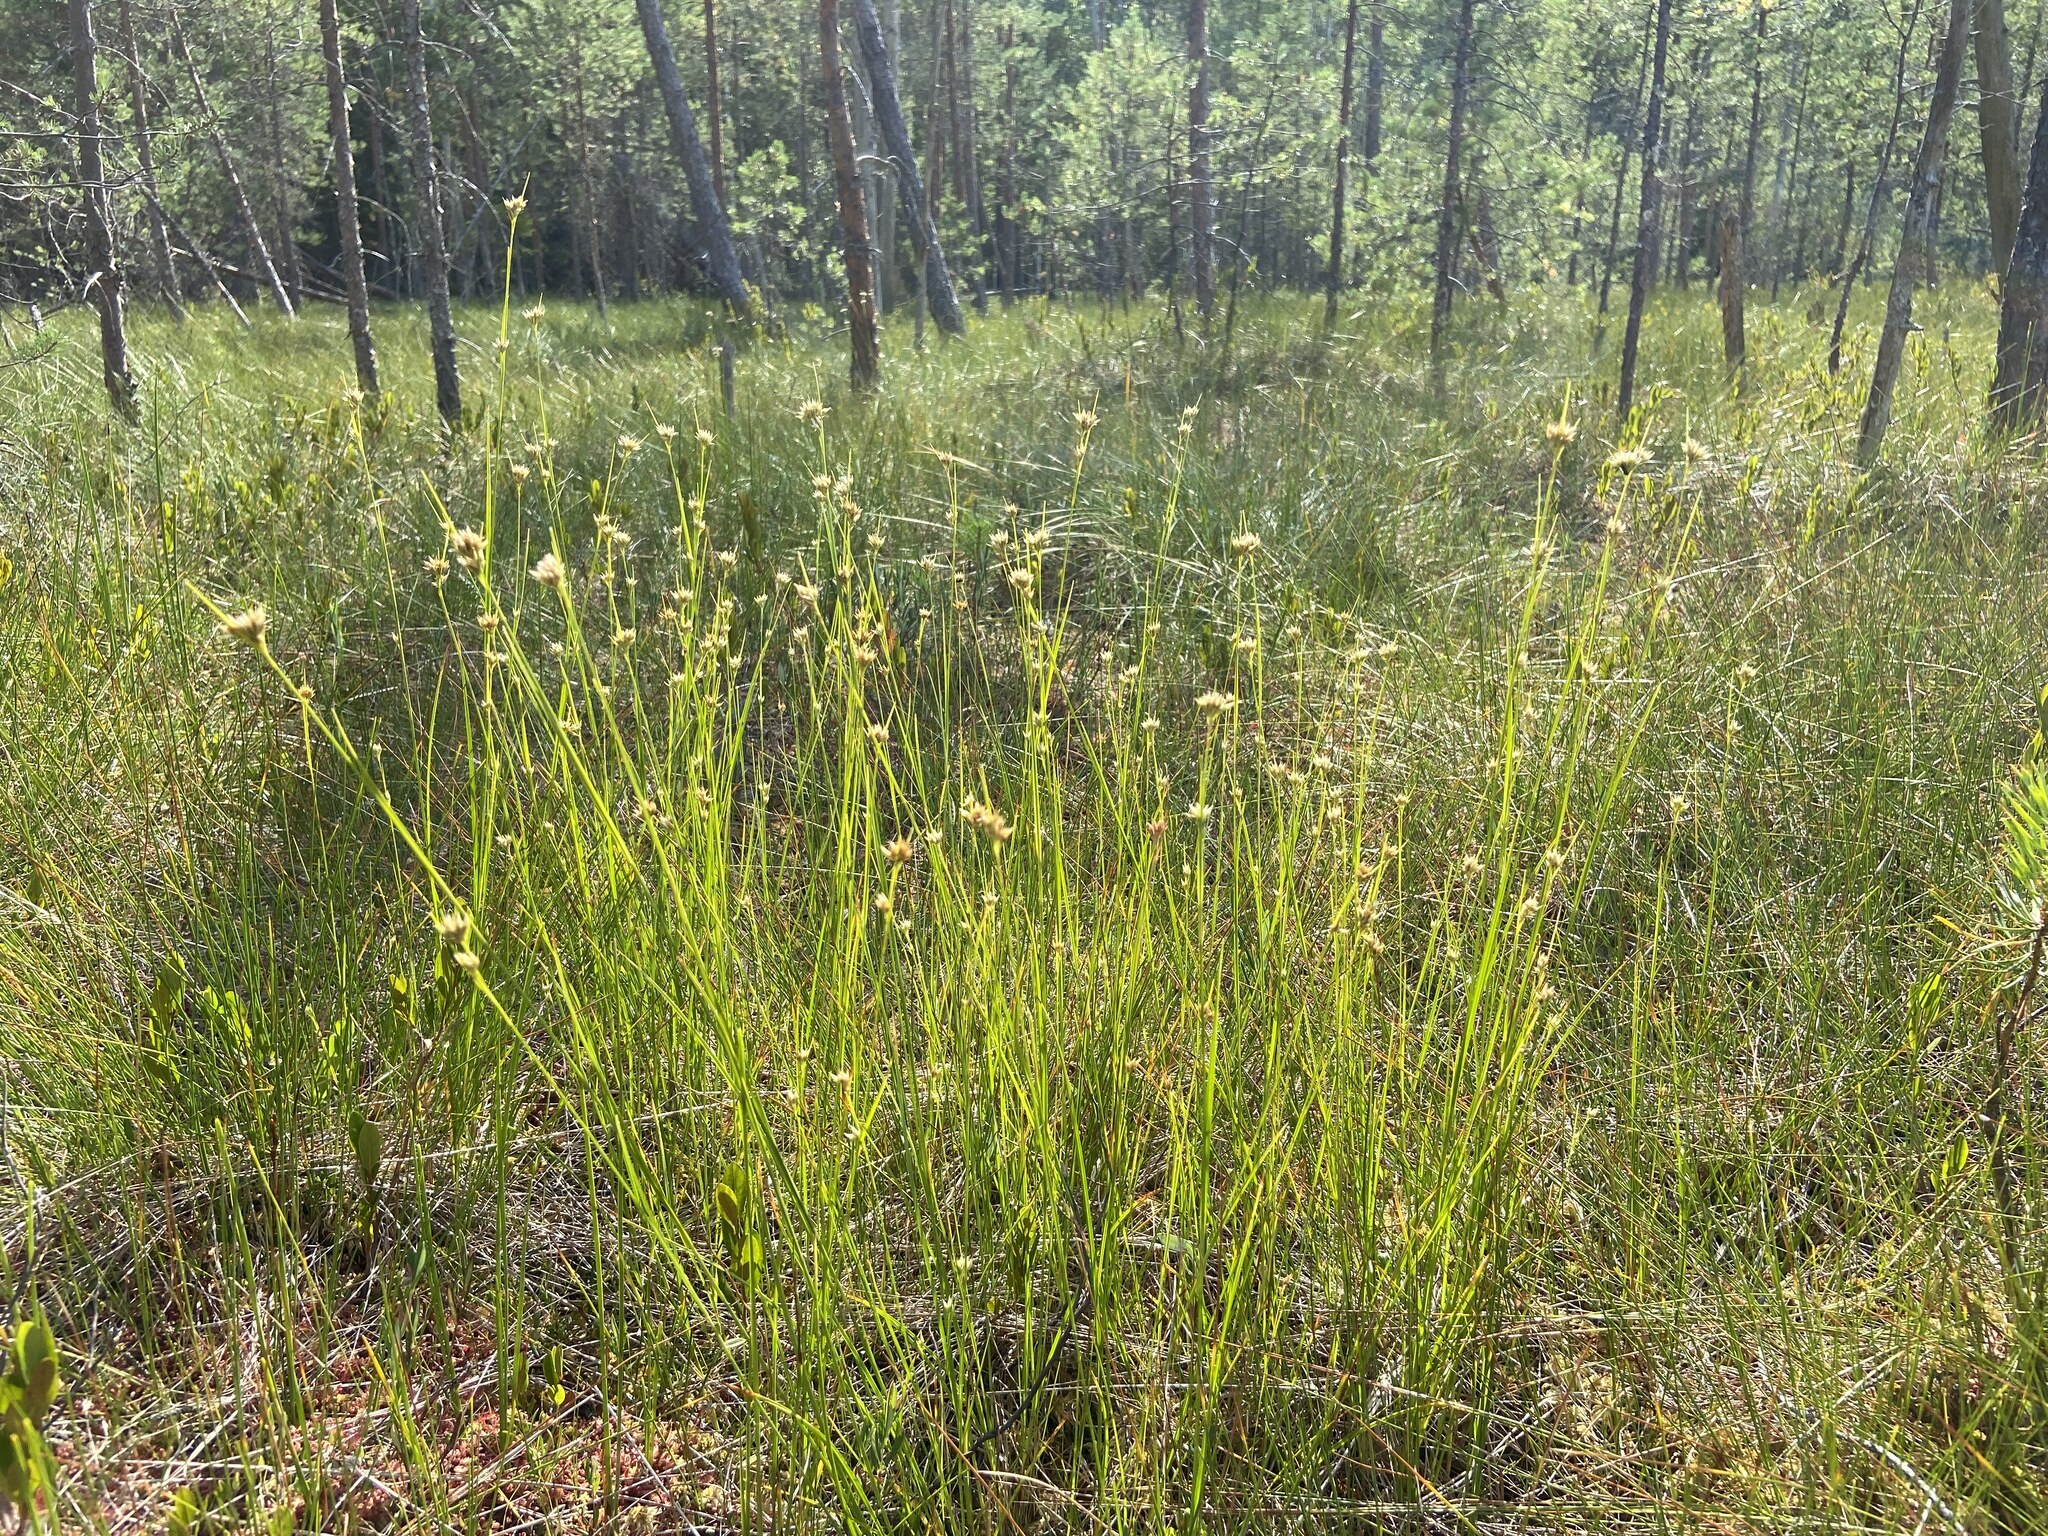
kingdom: Plantae
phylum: Tracheophyta
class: Liliopsida
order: Poales
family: Cyperaceae
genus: Rhynchospora
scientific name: Rhynchospora alba
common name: White beak-sedge
